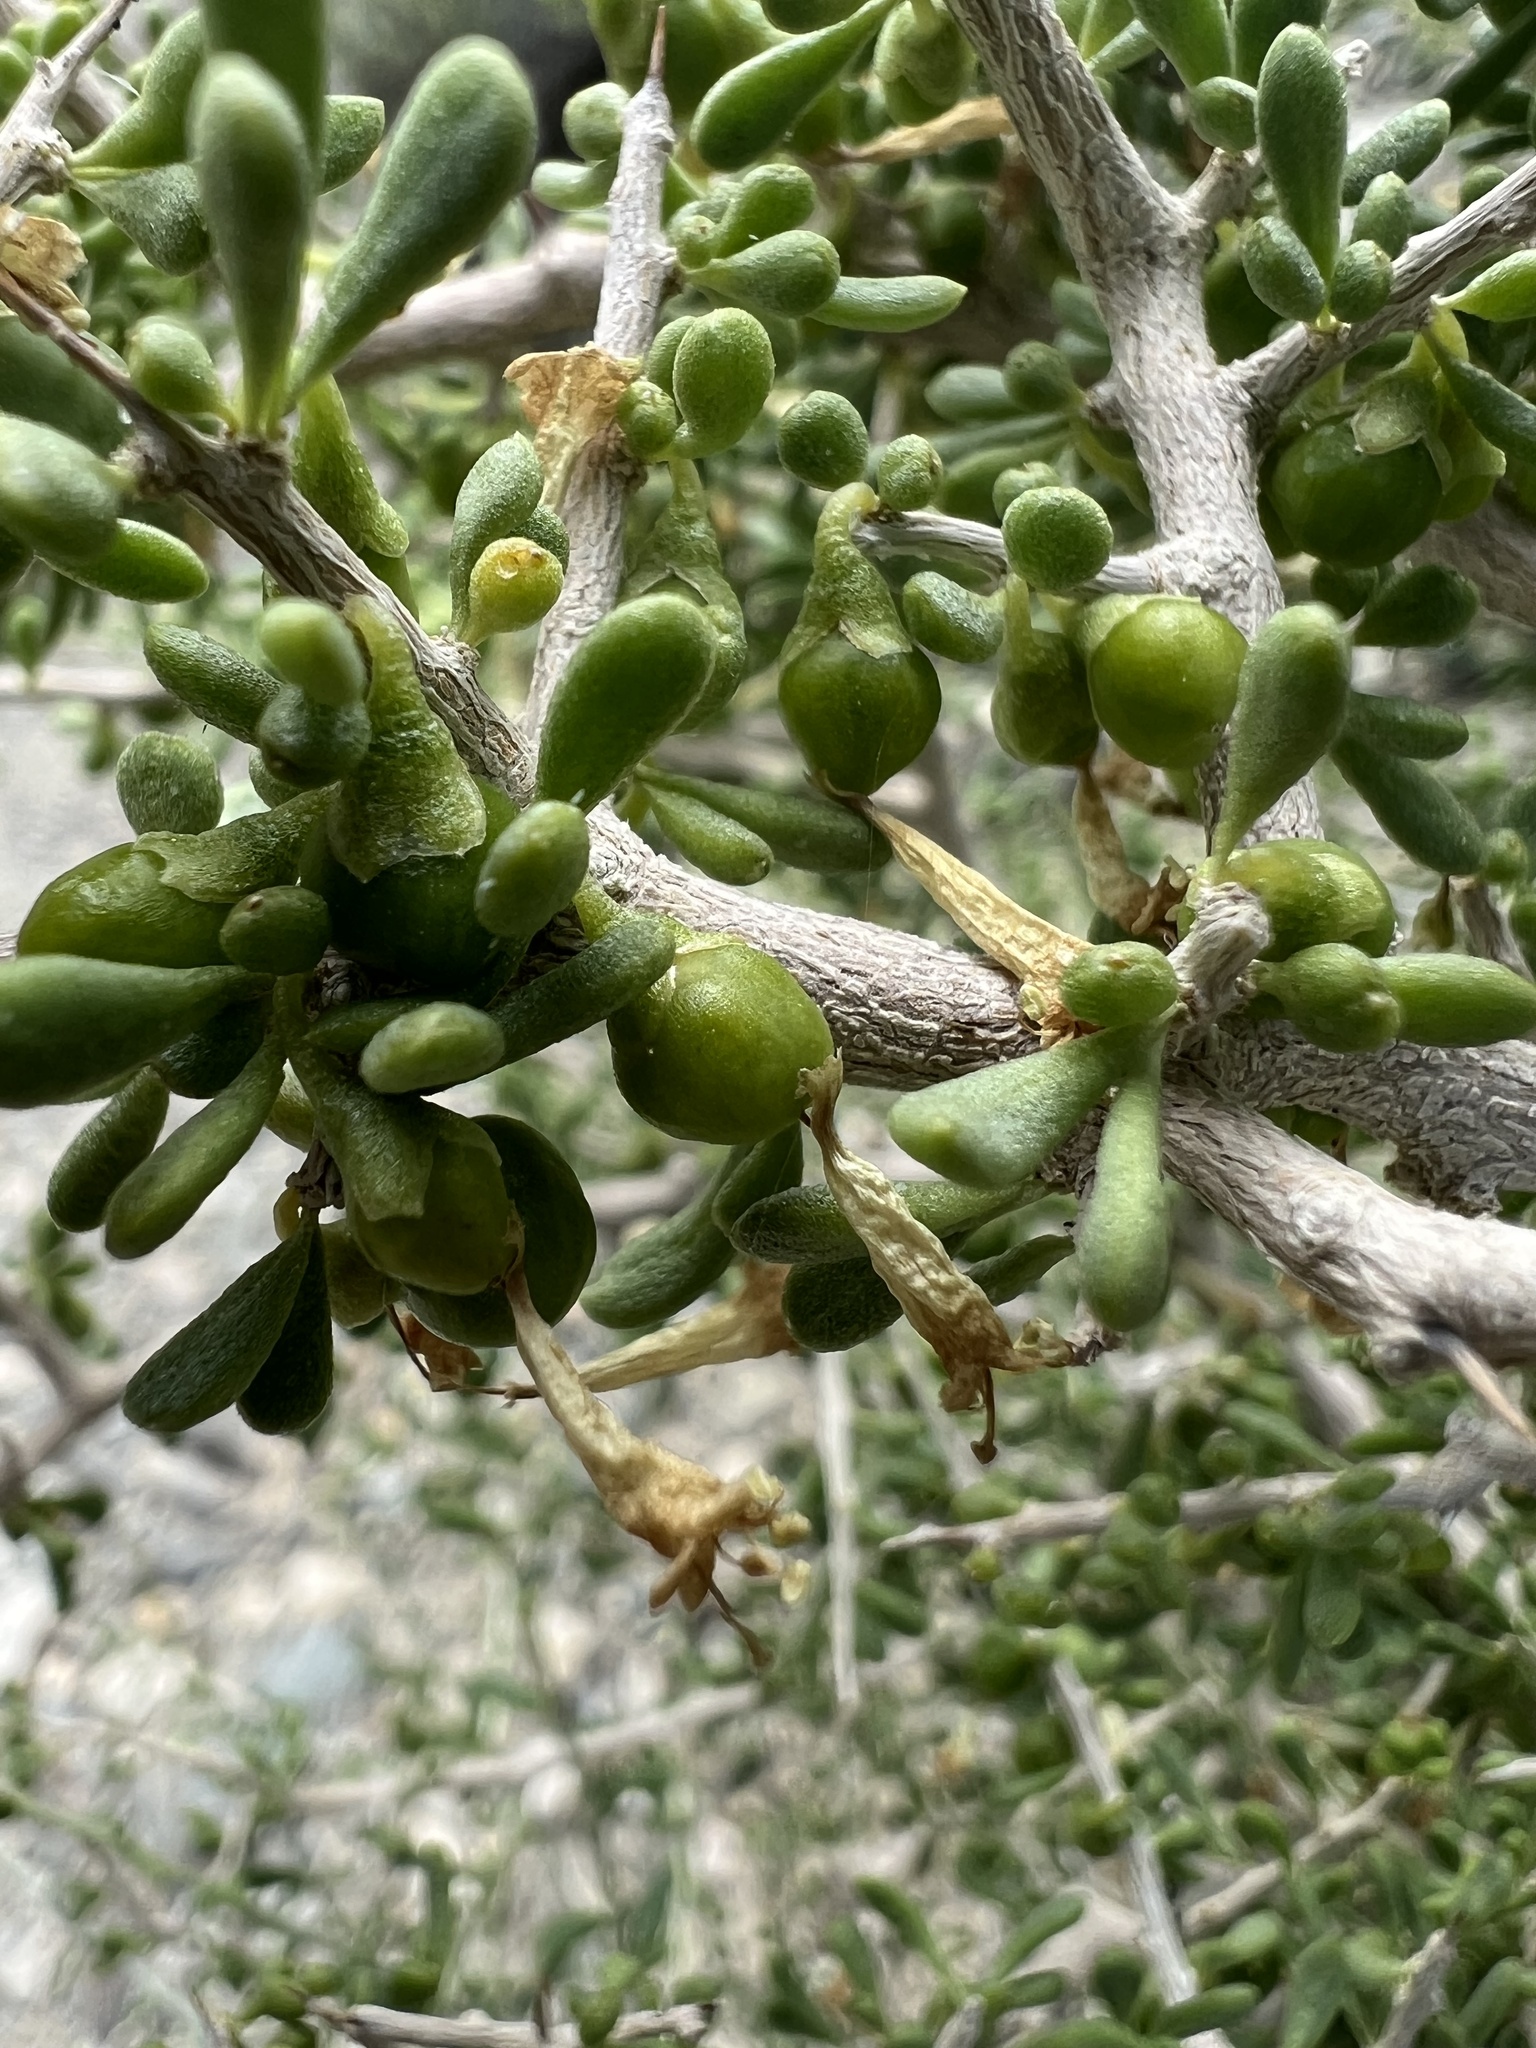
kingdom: Plantae
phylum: Tracheophyta
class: Magnoliopsida
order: Solanales
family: Solanaceae
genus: Lycium
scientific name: Lycium andersonii
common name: Water-jacket
